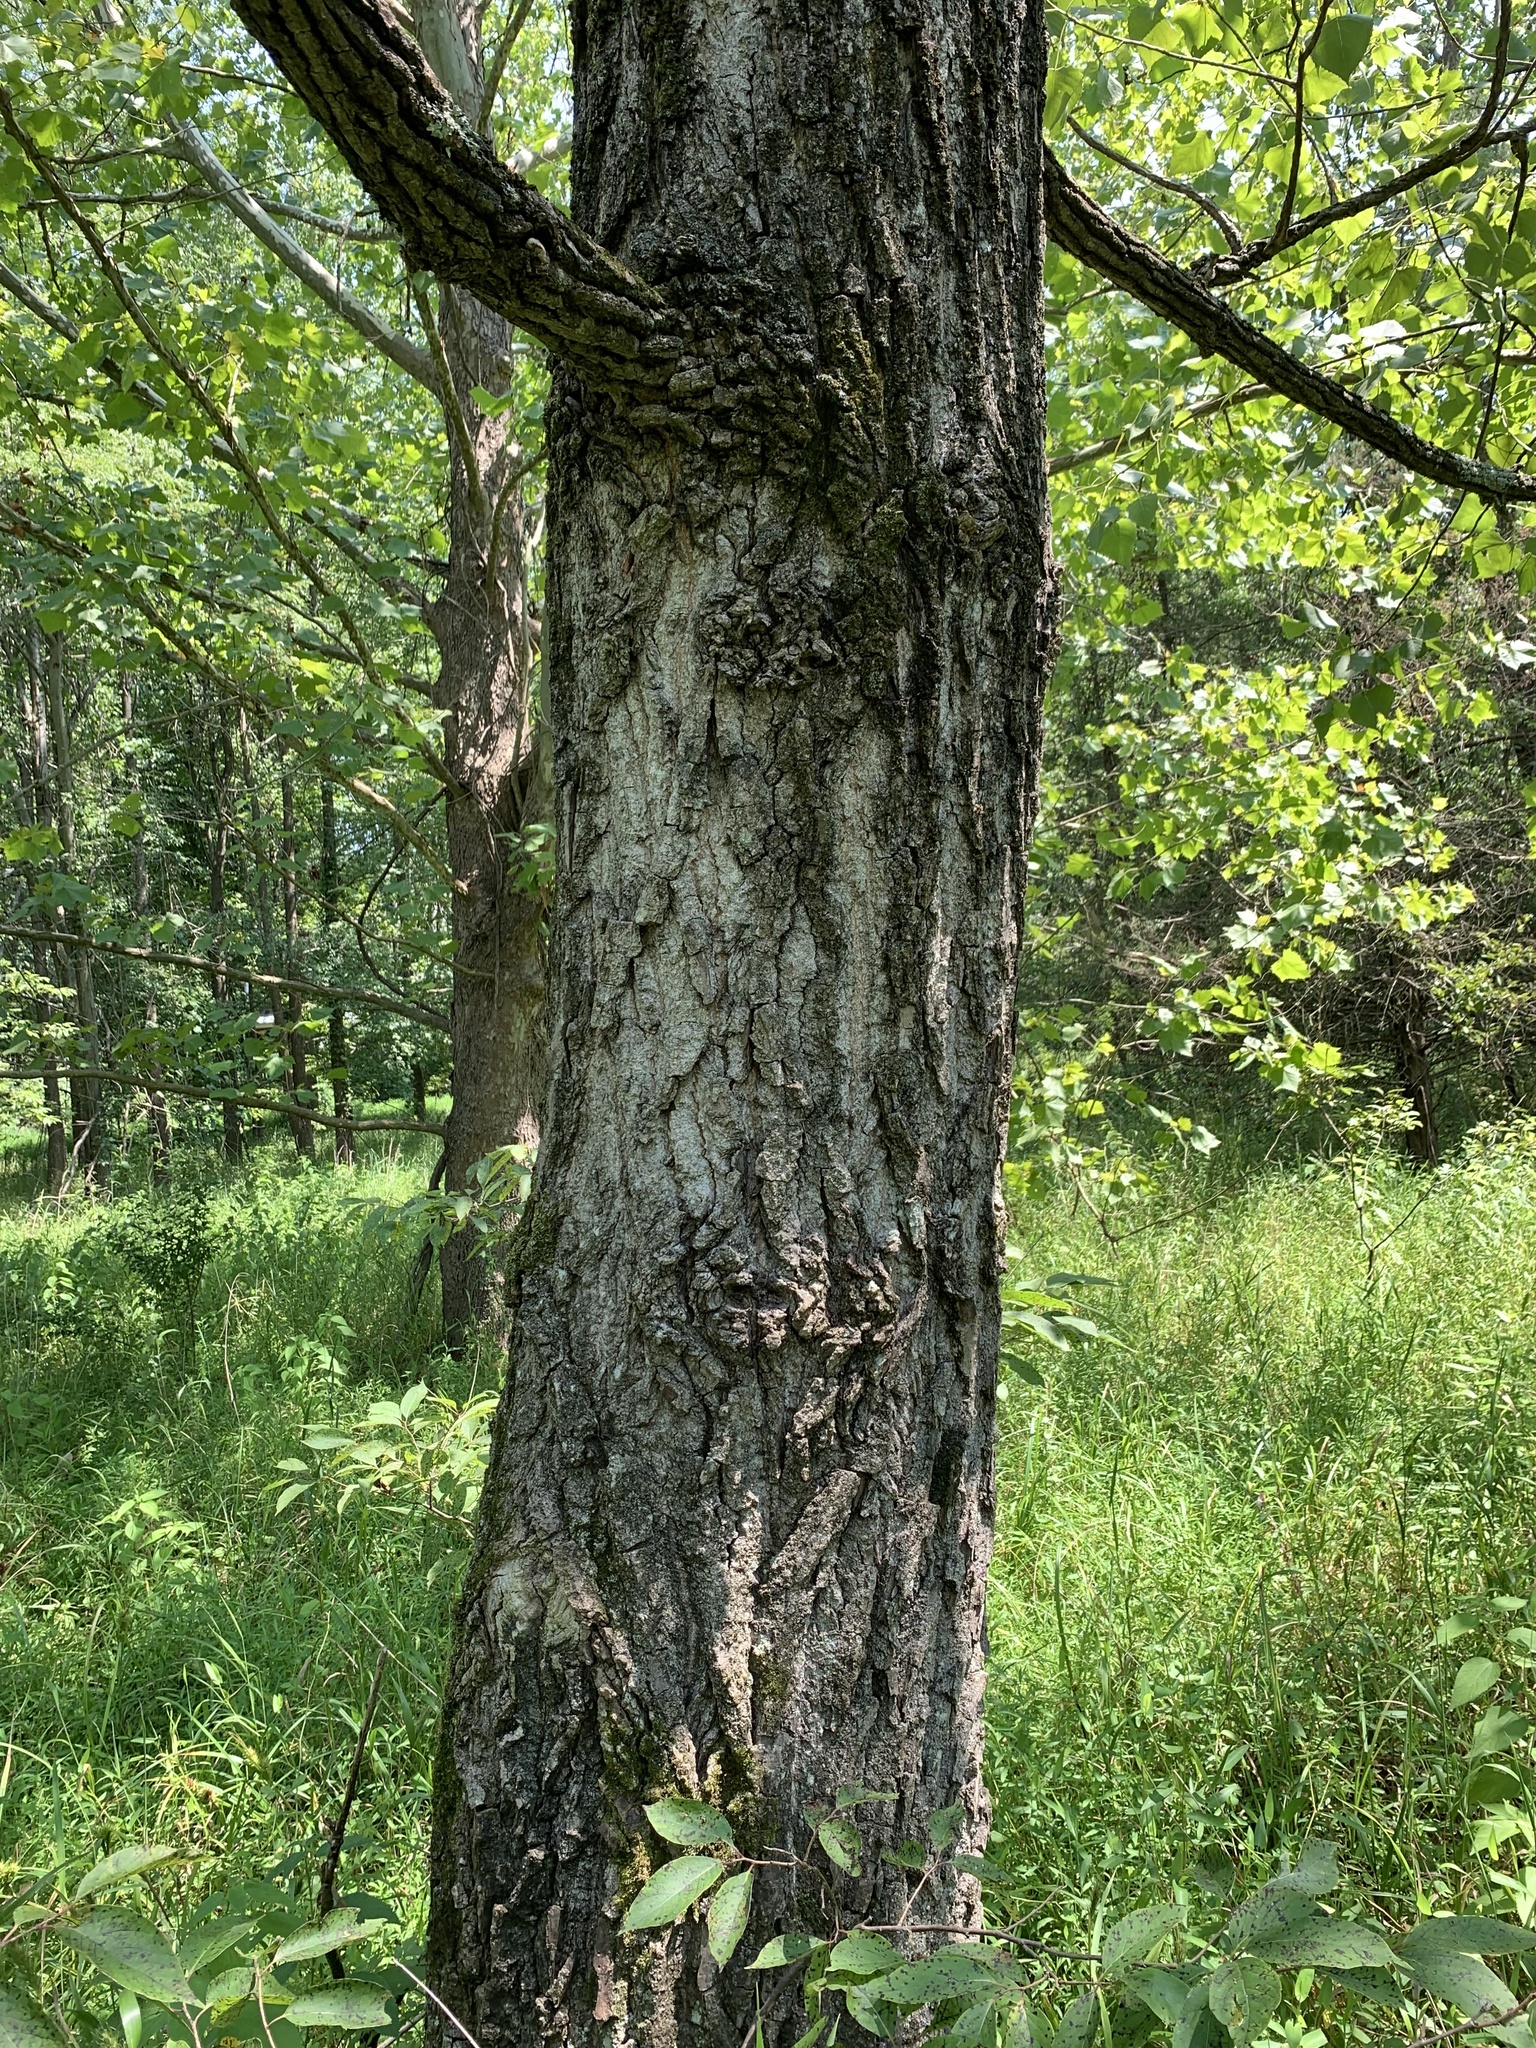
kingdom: Plantae
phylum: Tracheophyta
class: Magnoliopsida
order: Malpighiales
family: Salicaceae
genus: Populus
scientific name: Populus deltoides
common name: Eastern cottonwood
